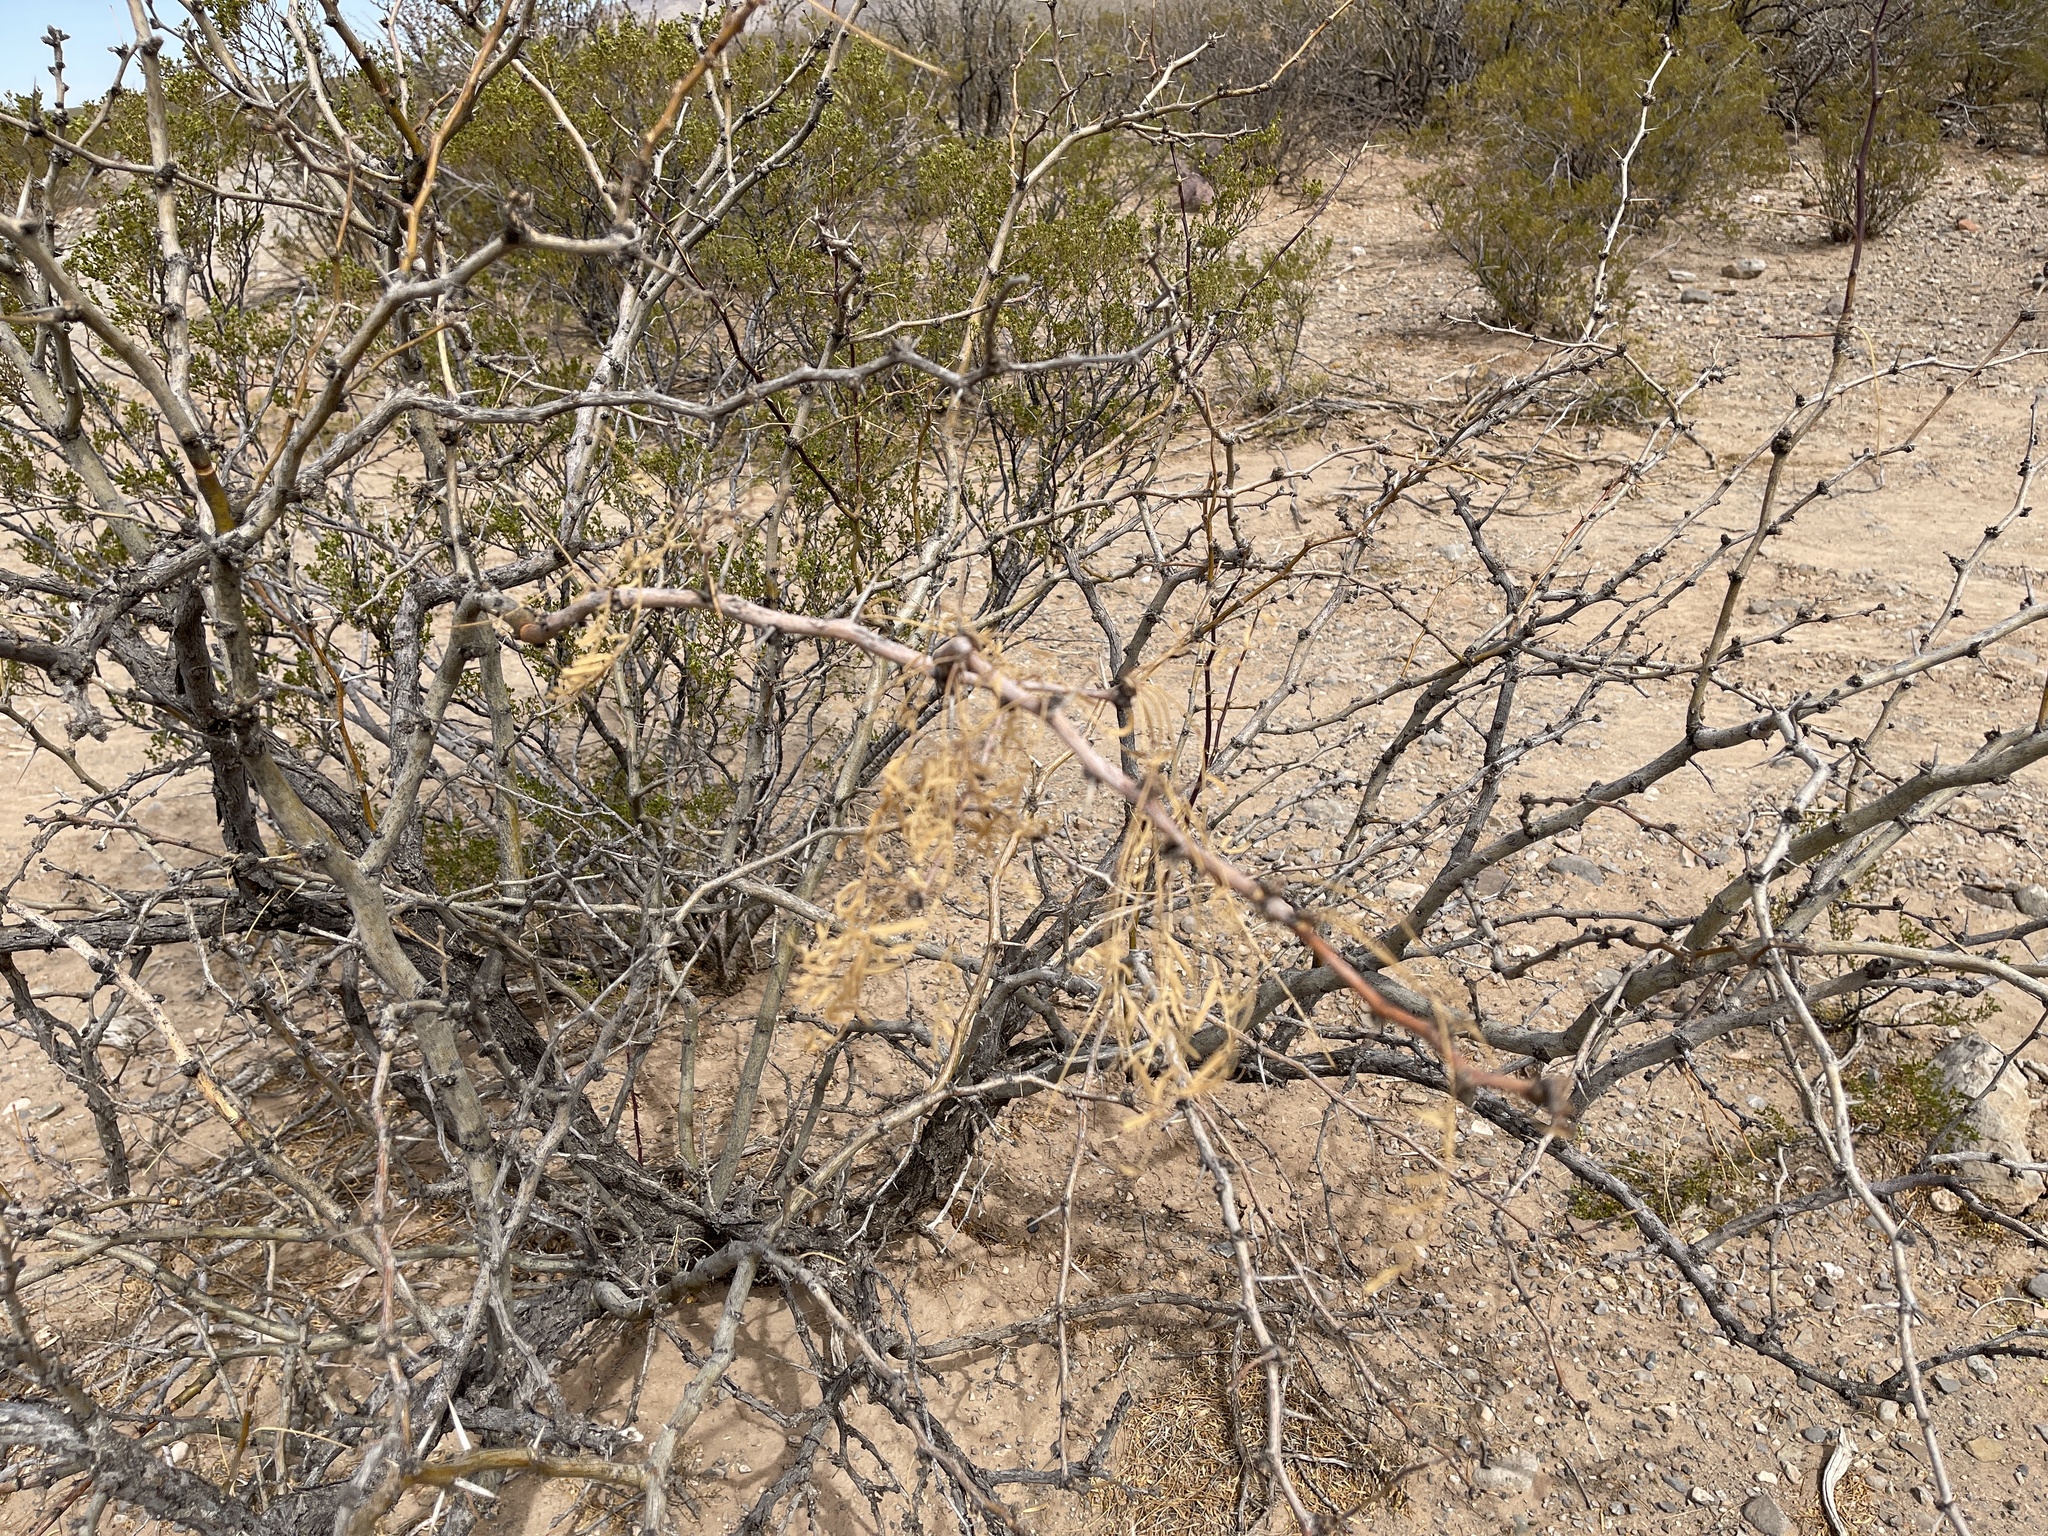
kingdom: Plantae
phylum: Tracheophyta
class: Magnoliopsida
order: Fabales
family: Fabaceae
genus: Prosopis
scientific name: Prosopis glandulosa
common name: Honey mesquite
